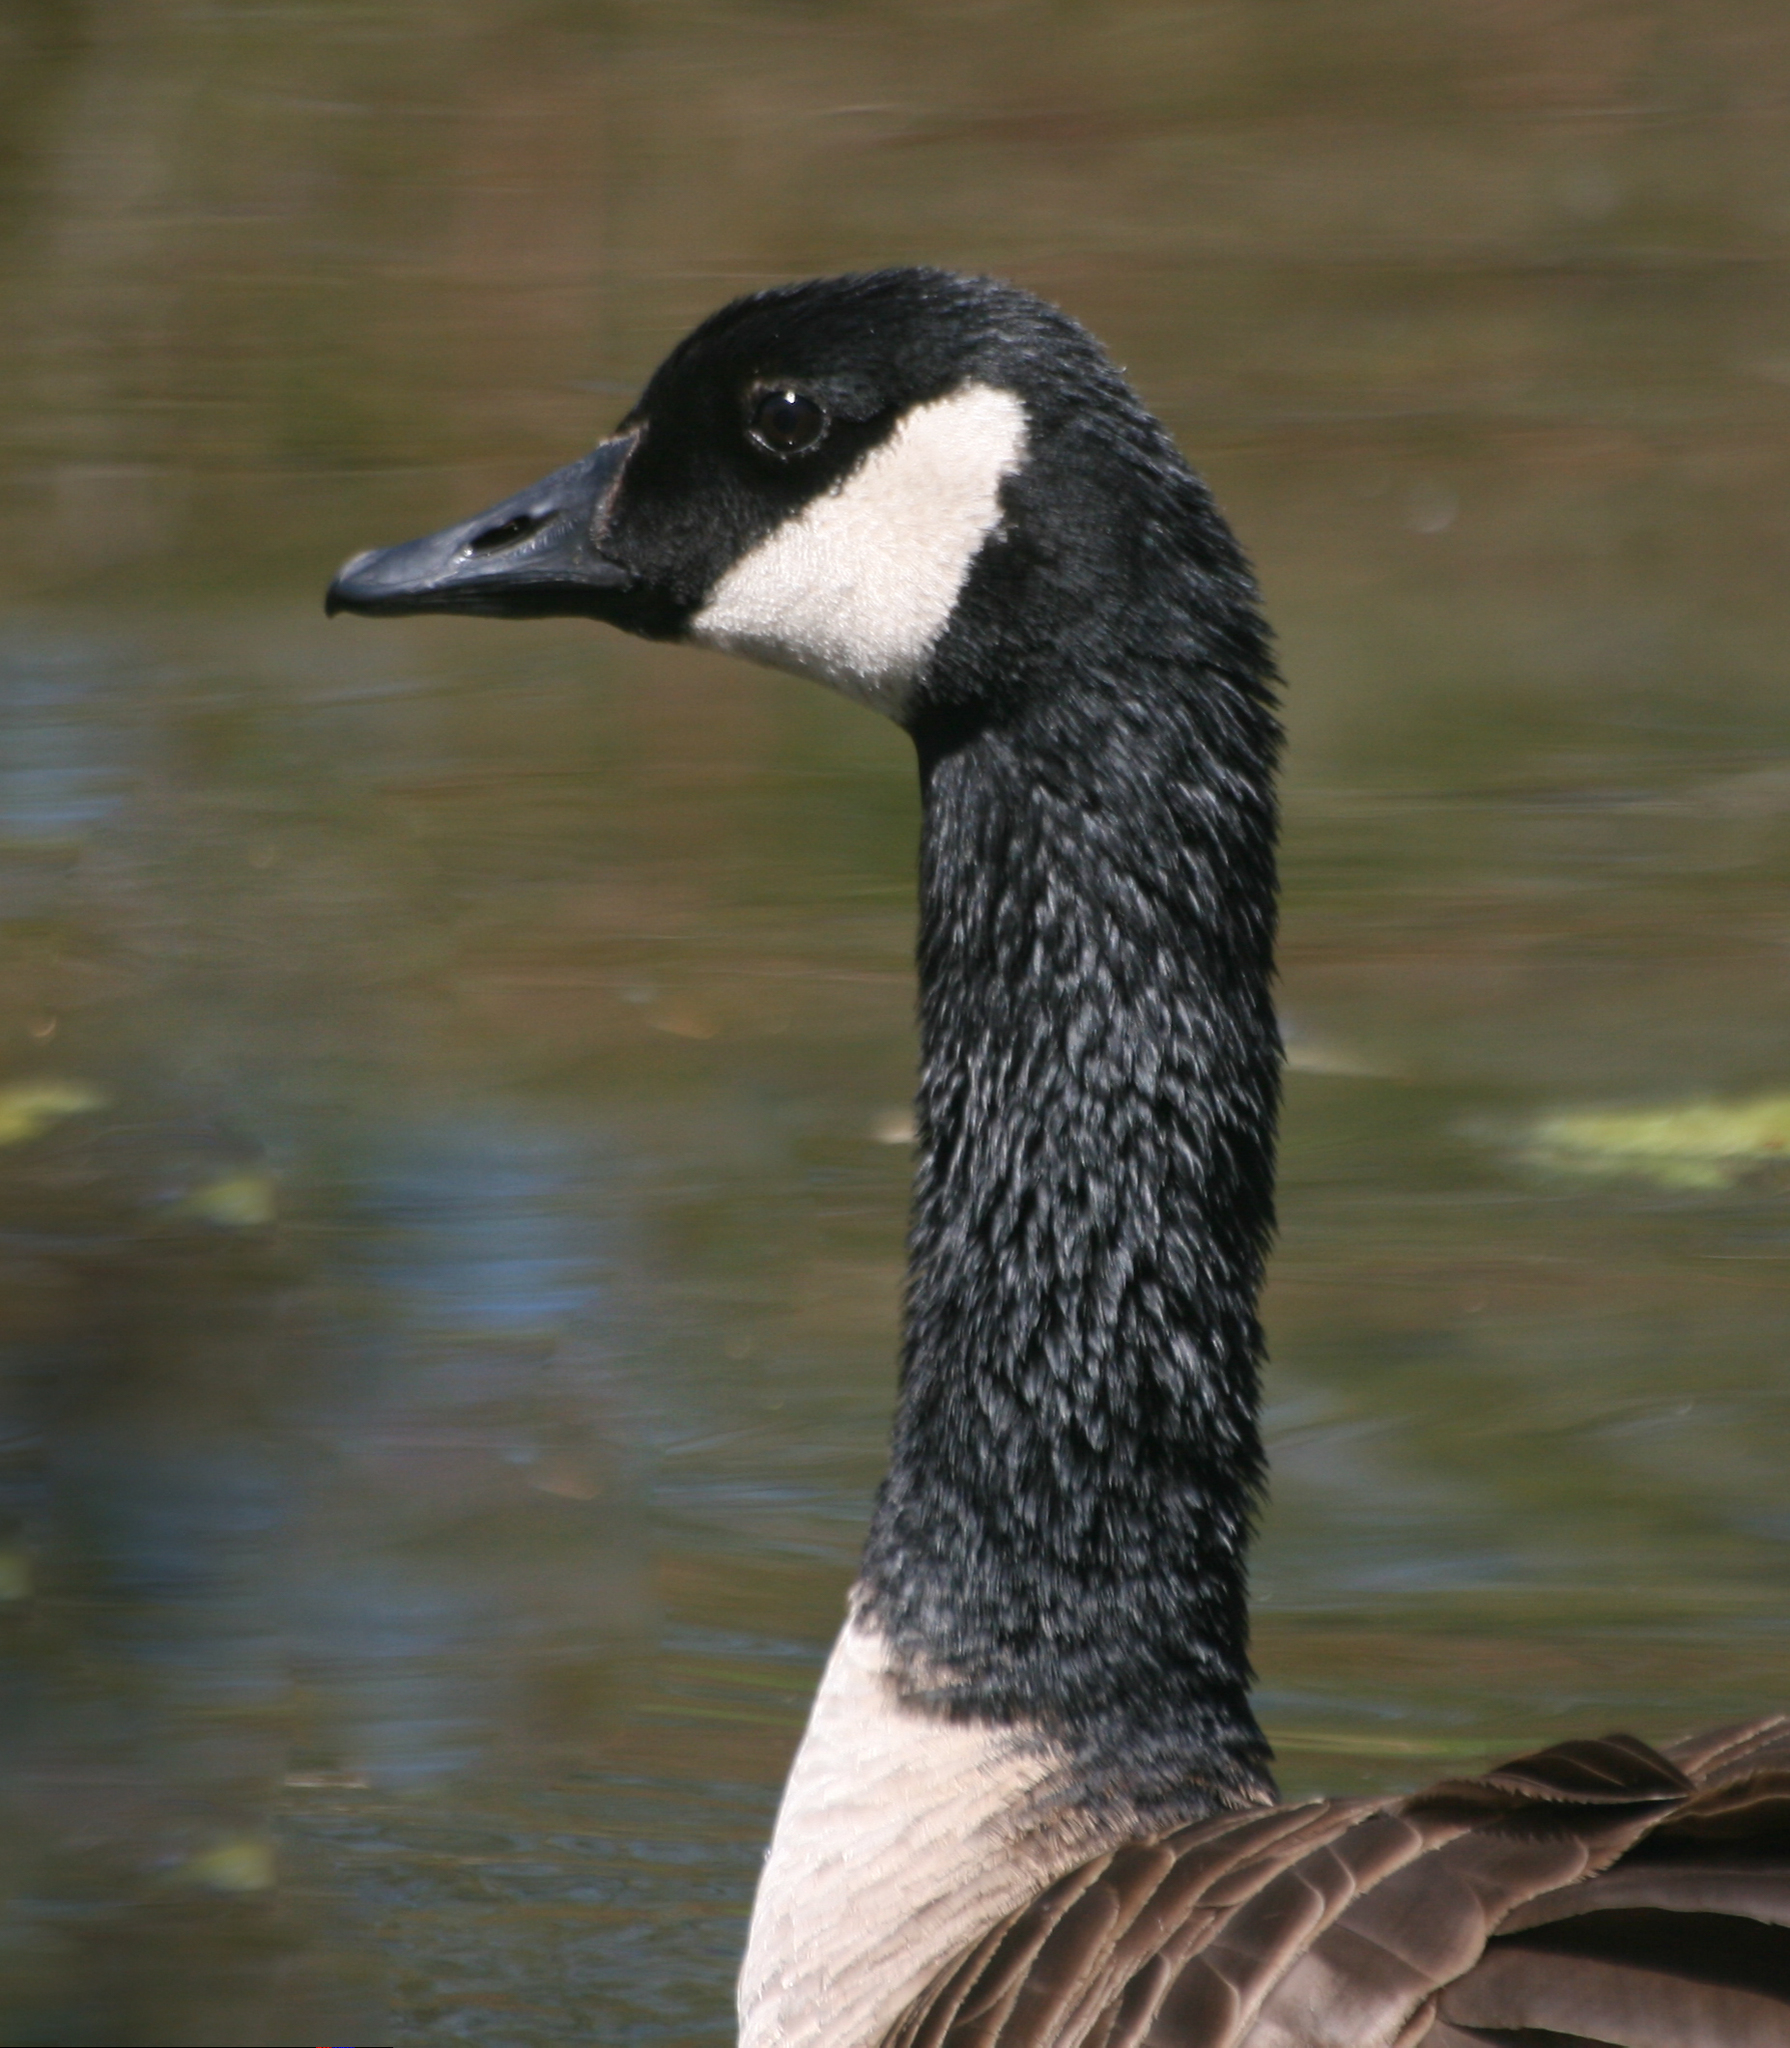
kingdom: Animalia
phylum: Chordata
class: Aves
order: Anseriformes
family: Anatidae
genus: Branta
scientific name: Branta canadensis
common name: Canada goose
